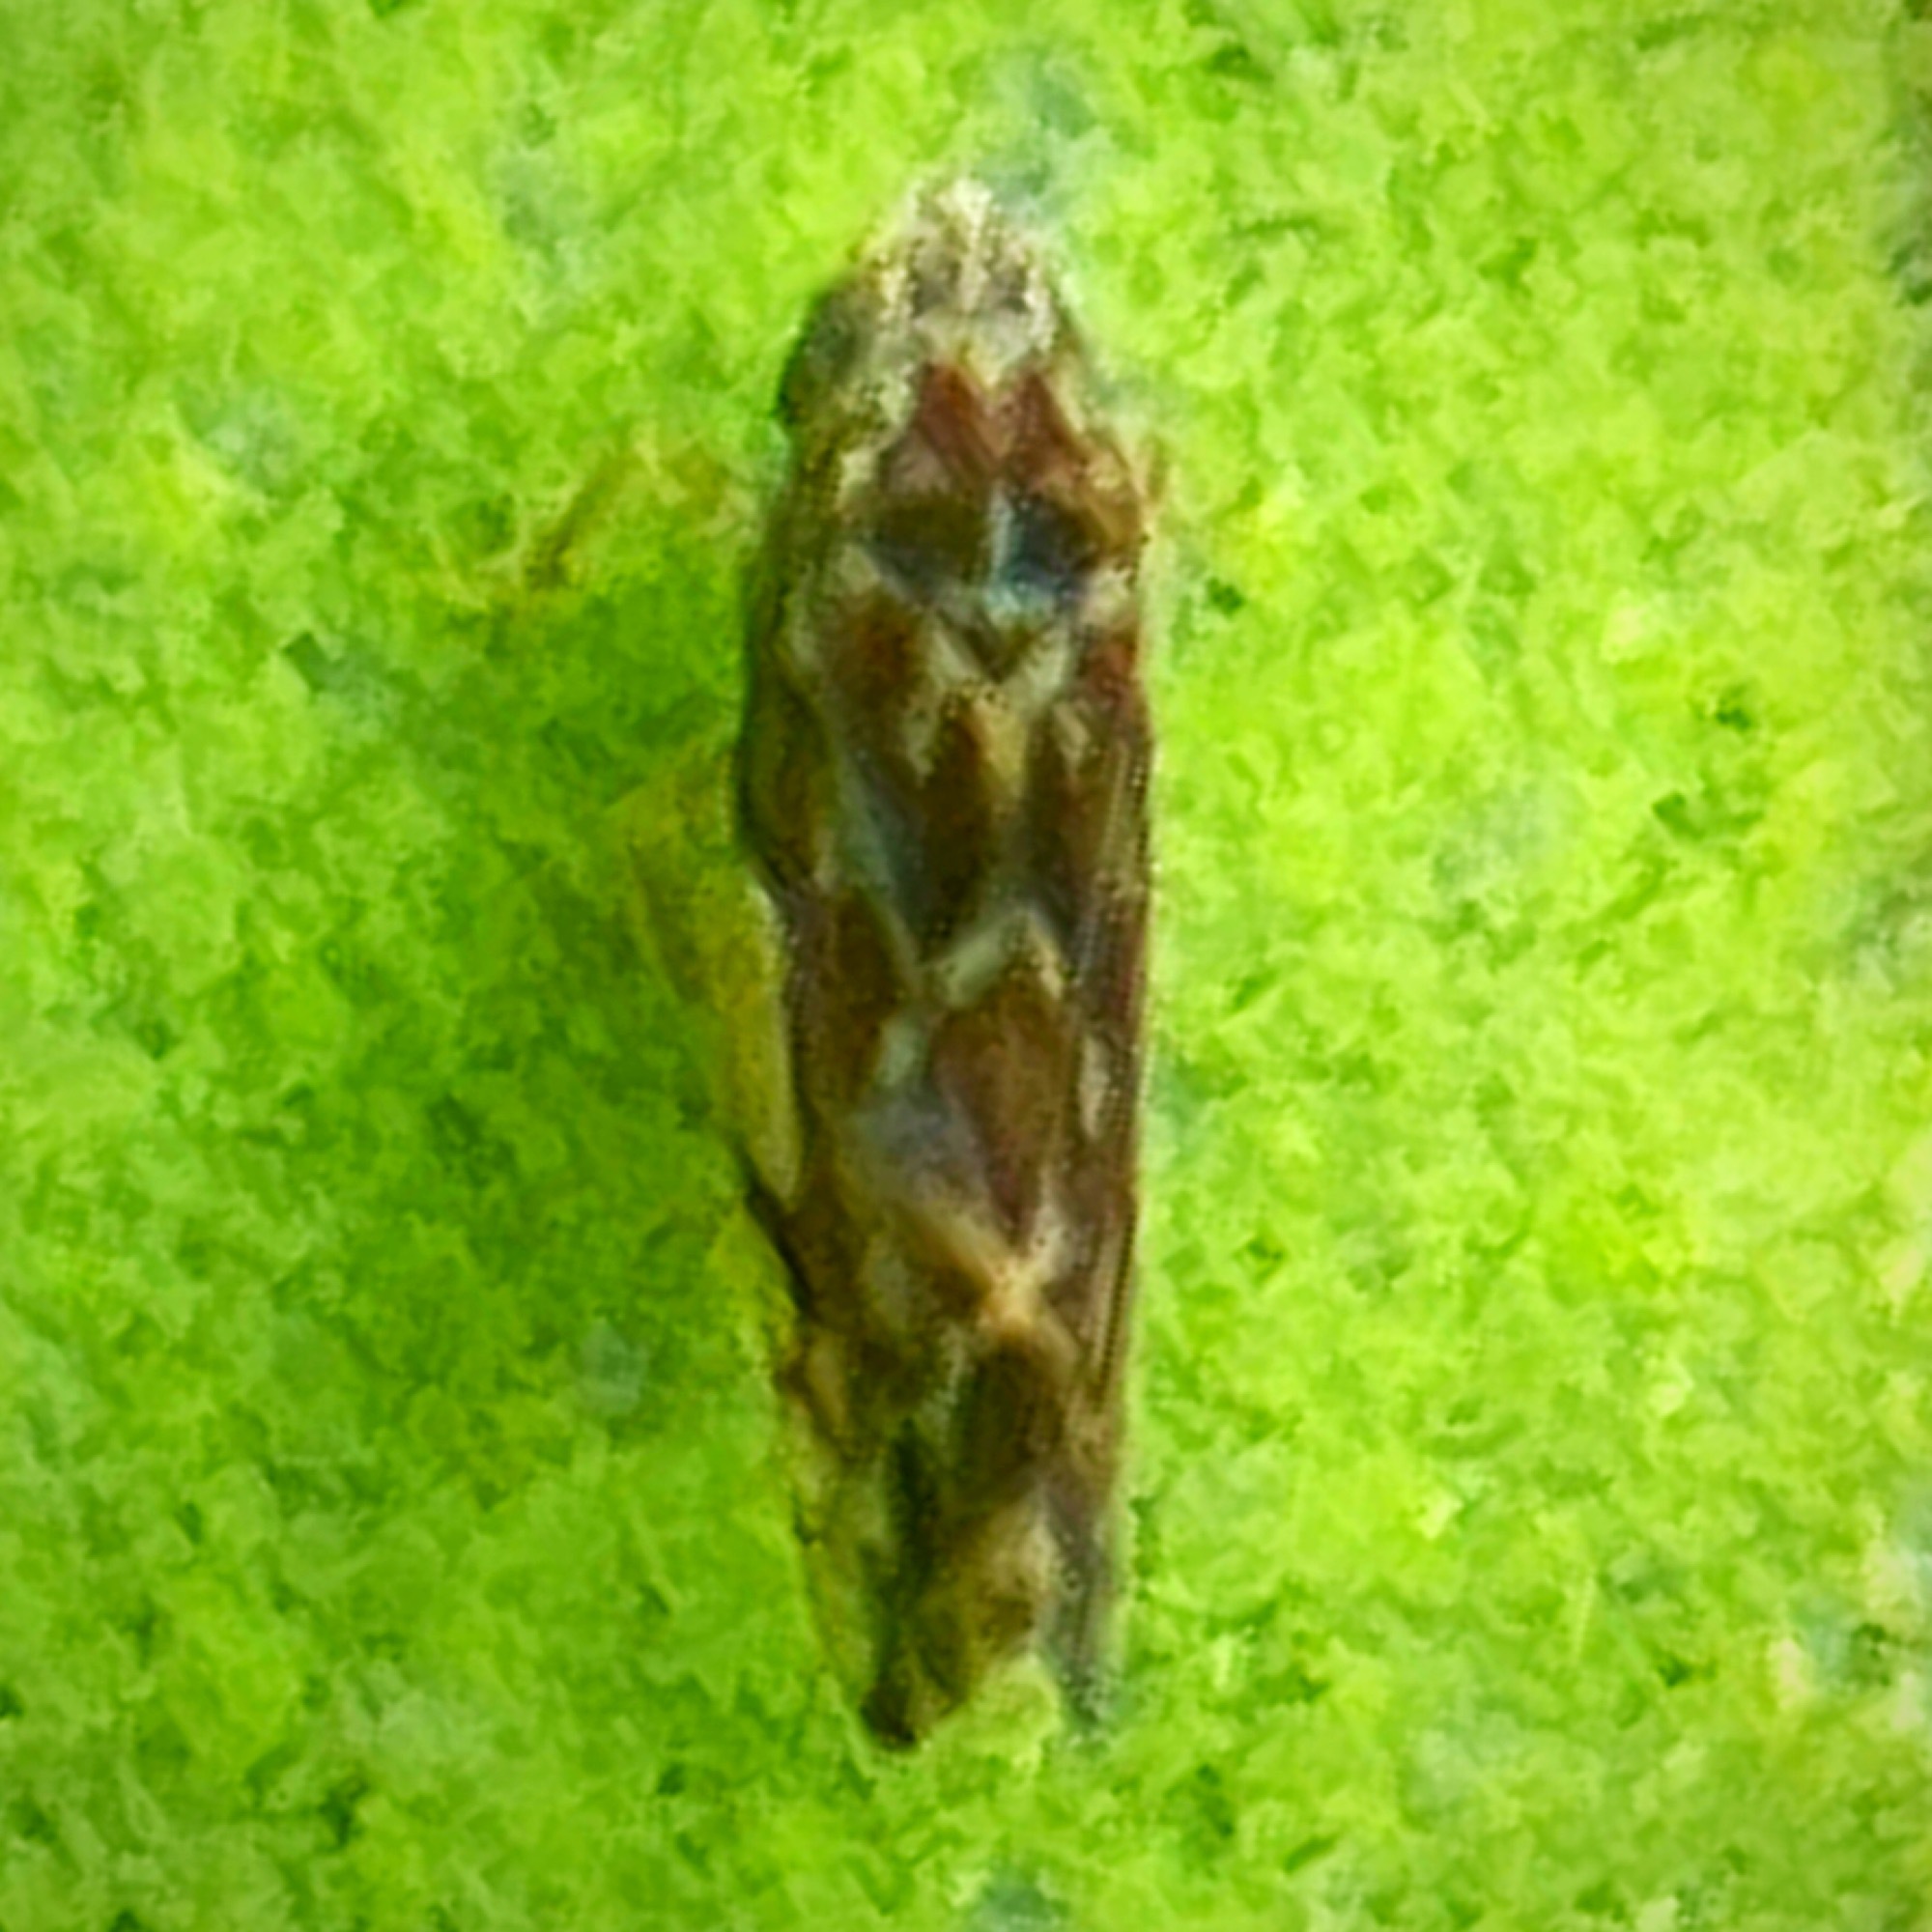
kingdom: Animalia
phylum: Arthropoda
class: Insecta
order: Hemiptera
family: Cicadellidae
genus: Erasmoneura
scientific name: Erasmoneura vulnerata
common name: The wounded leafhopper
